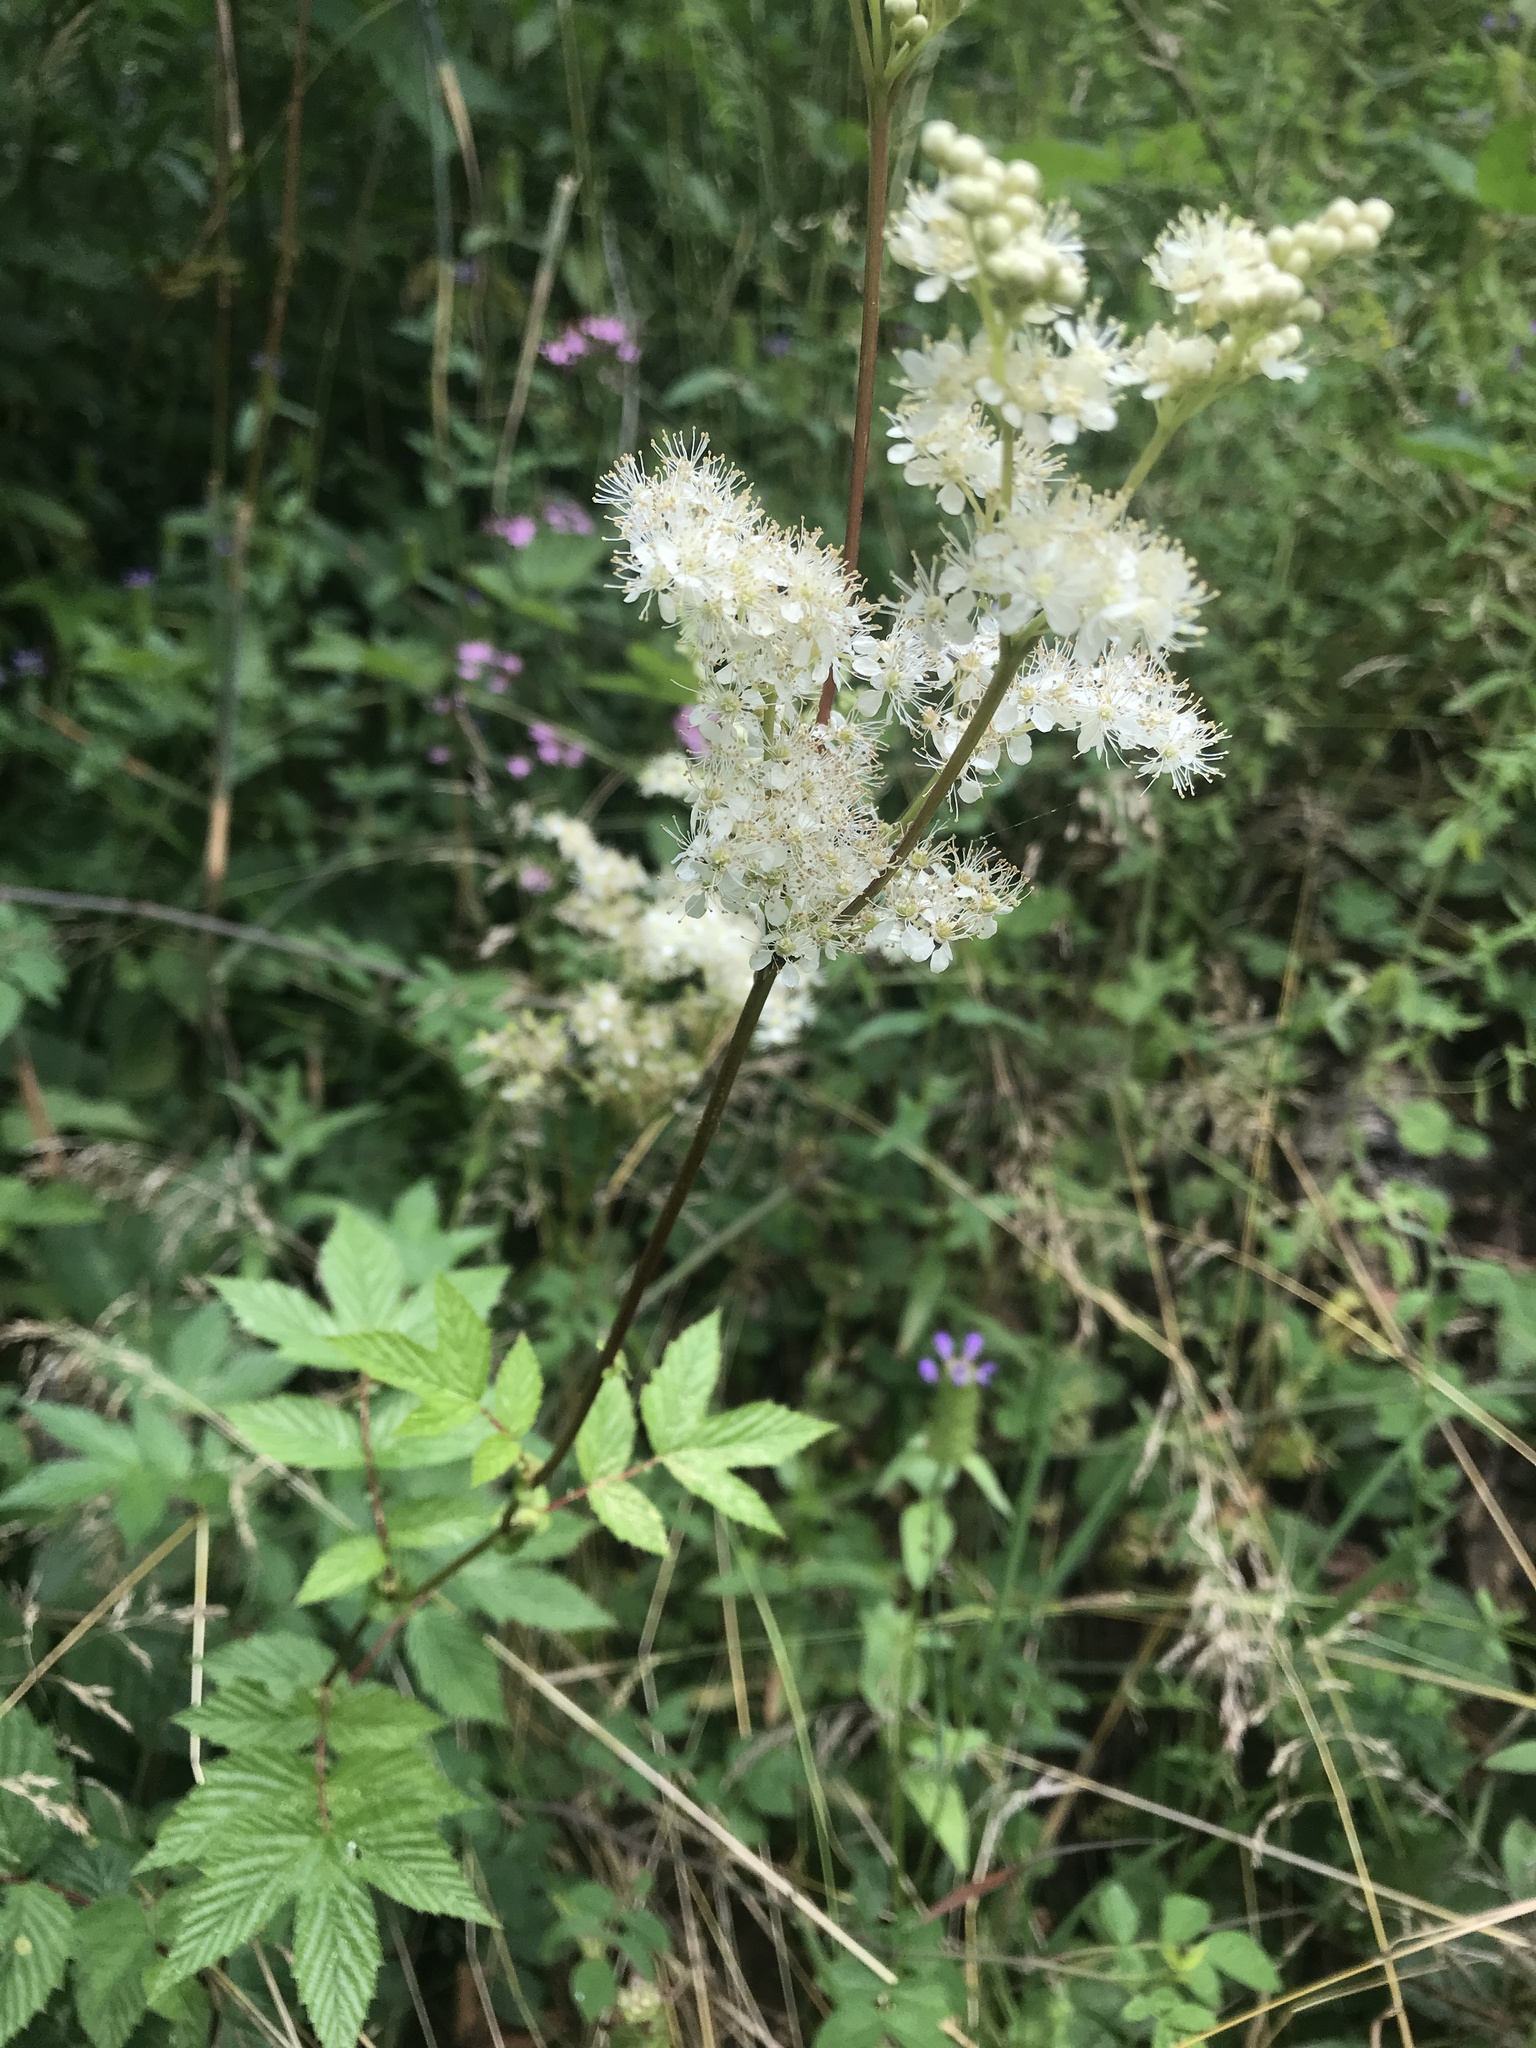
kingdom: Plantae
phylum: Tracheophyta
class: Magnoliopsida
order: Rosales
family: Rosaceae
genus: Filipendula
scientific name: Filipendula ulmaria
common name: Meadowsweet
